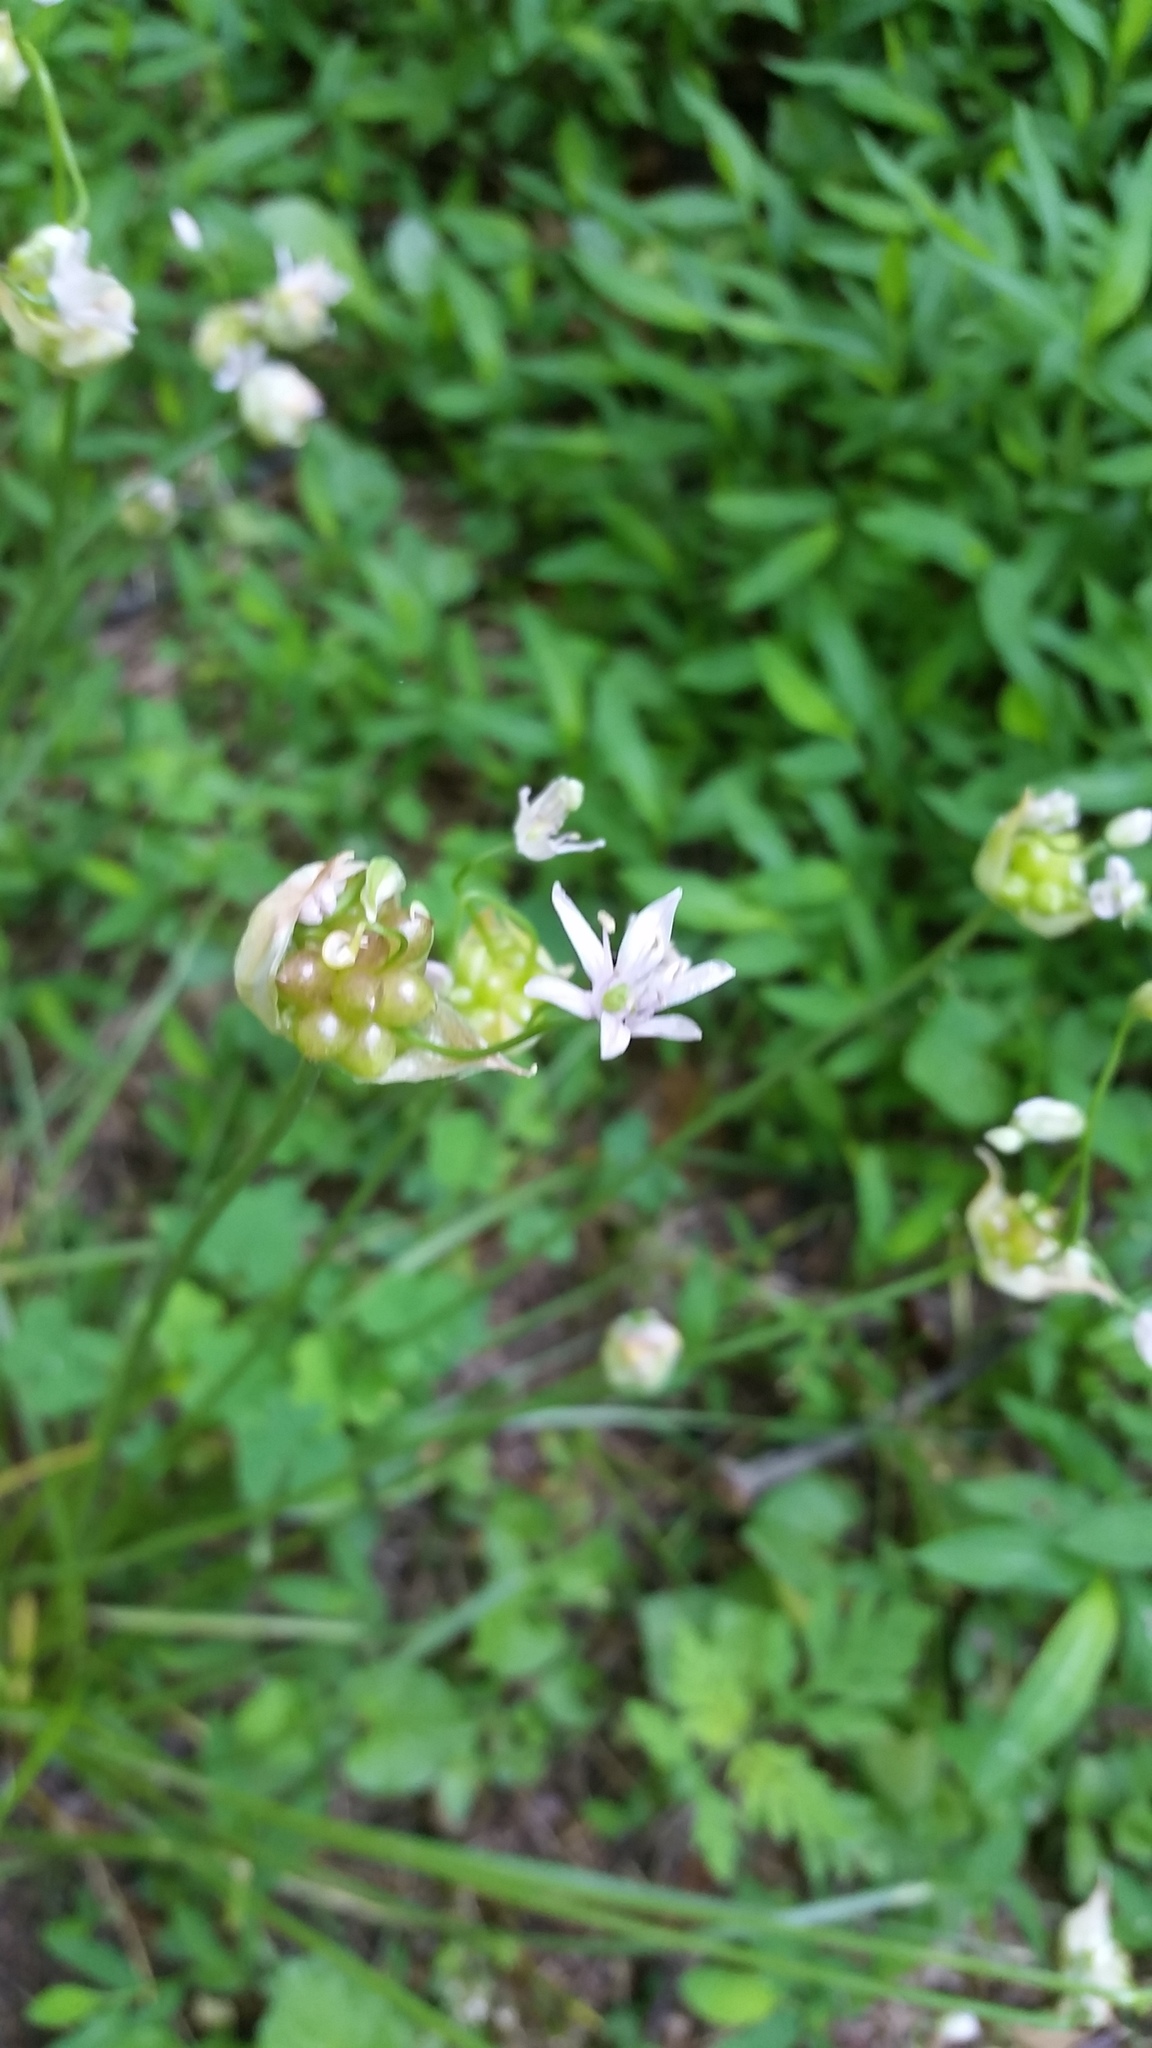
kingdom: Plantae
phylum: Tracheophyta
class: Liliopsida
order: Asparagales
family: Amaryllidaceae
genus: Allium
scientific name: Allium canadense
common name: Meadow garlic
